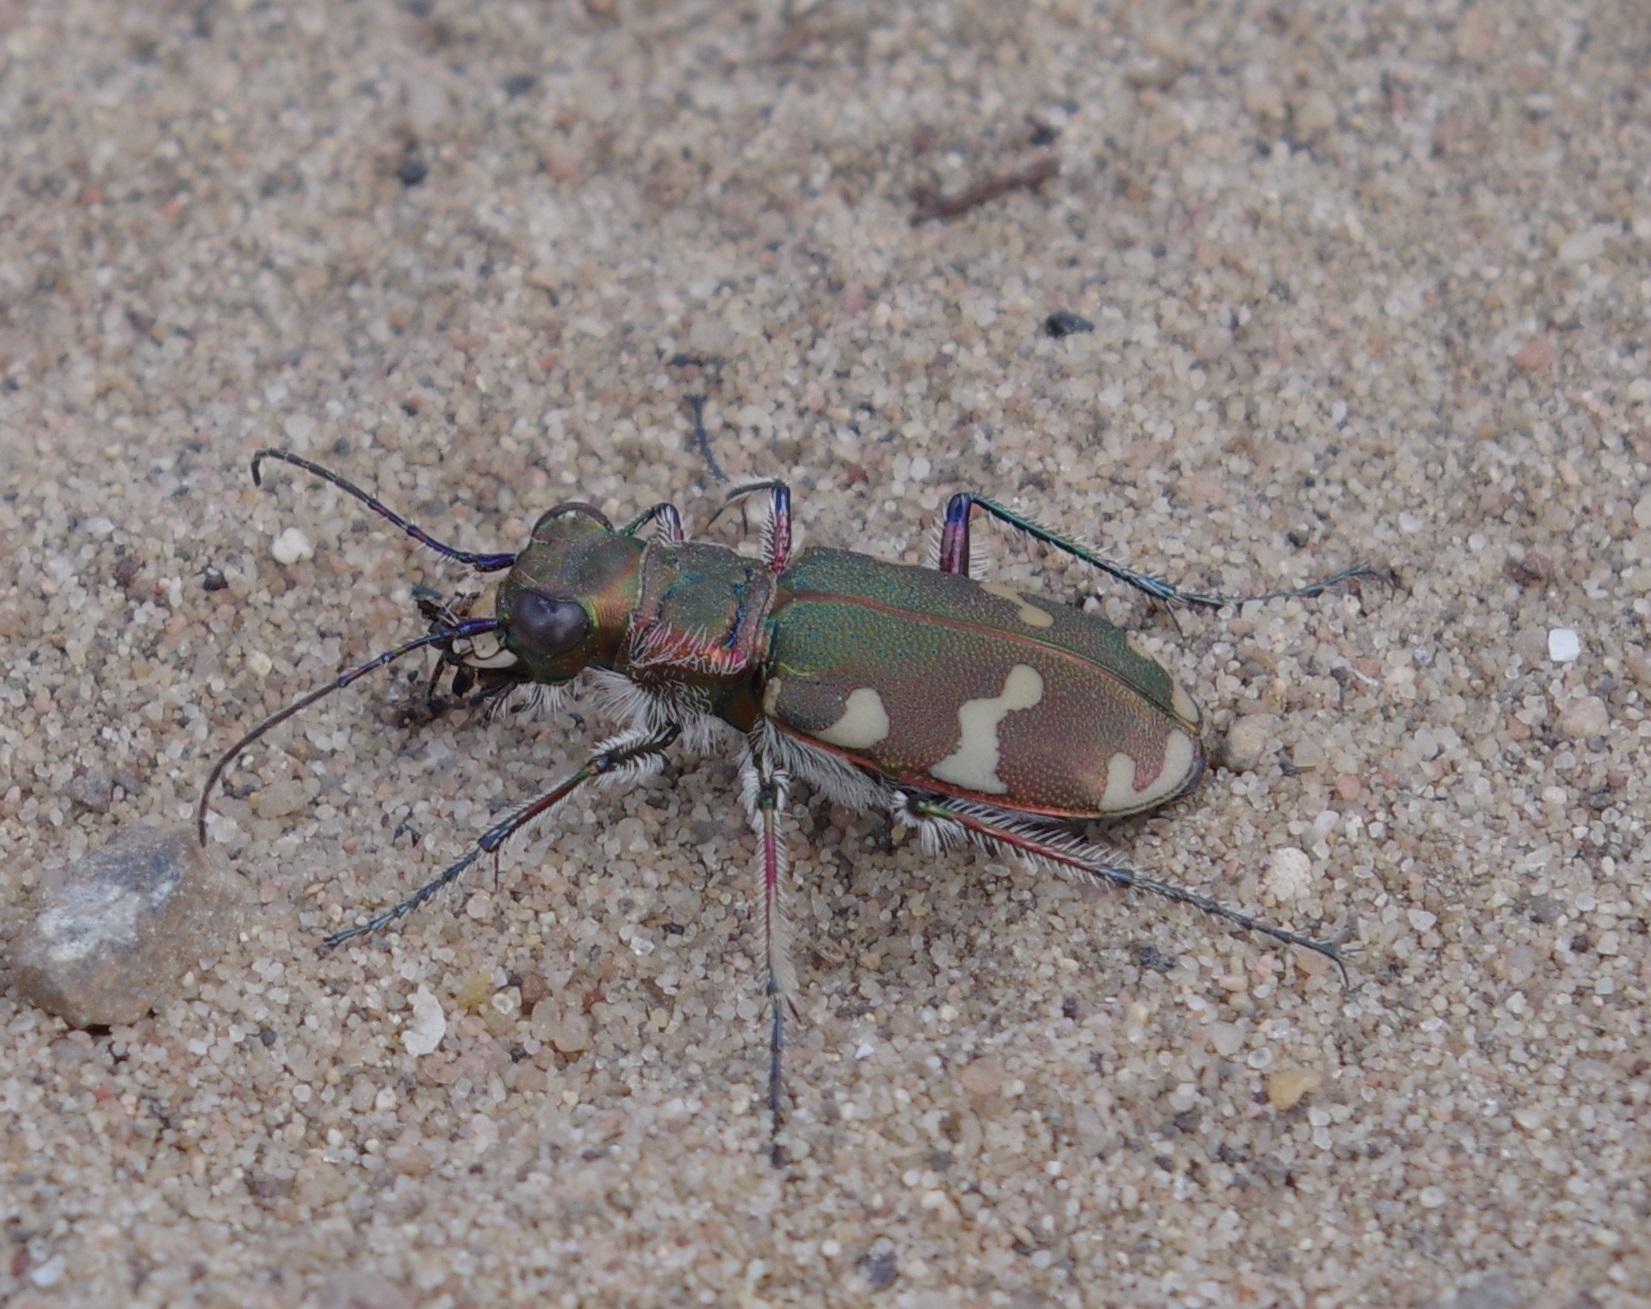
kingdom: Animalia
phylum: Arthropoda
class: Insecta
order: Coleoptera
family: Carabidae
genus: Cicindela
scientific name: Cicindela hybrida
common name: Northern dune tiger beetle
